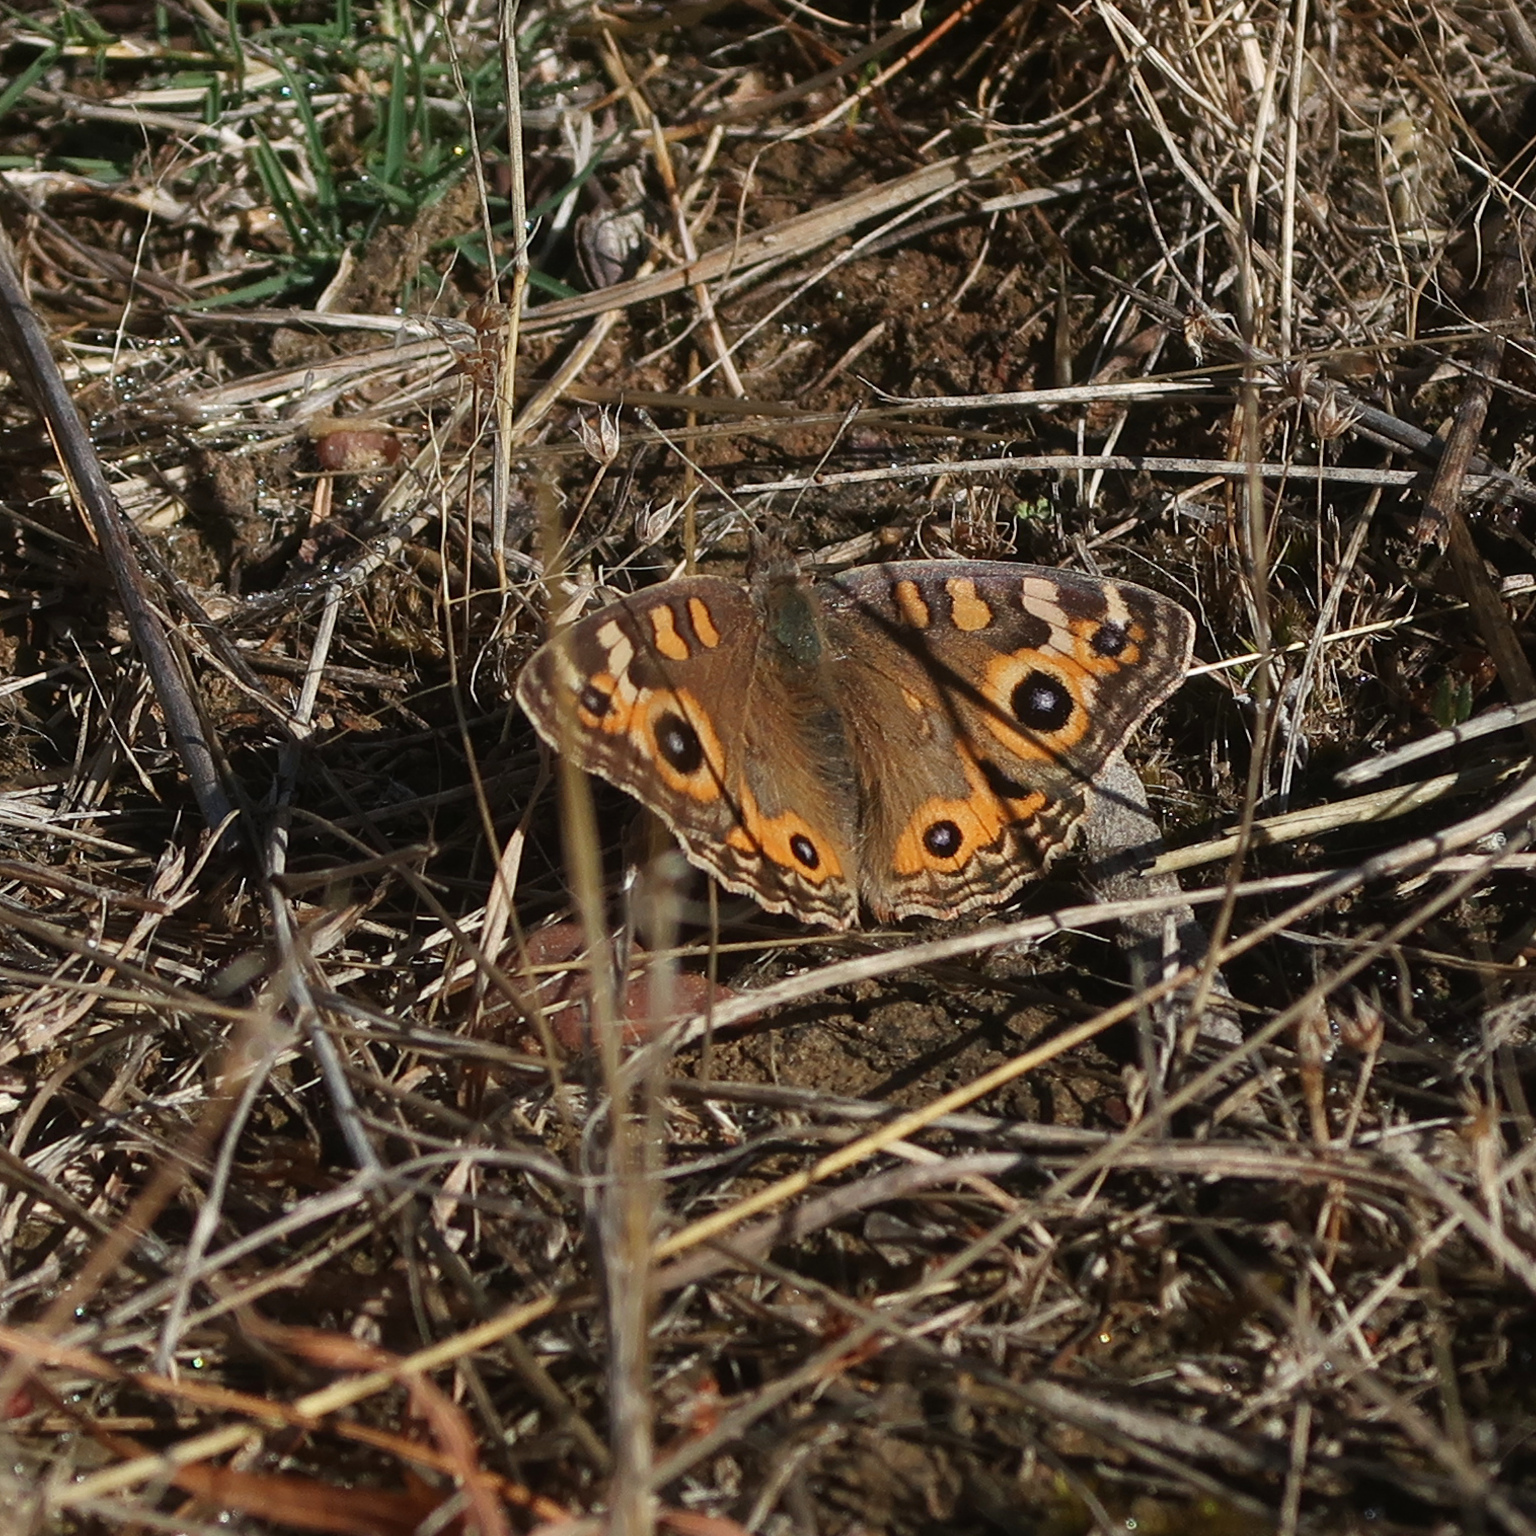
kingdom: Animalia
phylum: Arthropoda
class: Insecta
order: Lepidoptera
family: Nymphalidae
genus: Junonia
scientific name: Junonia villida
